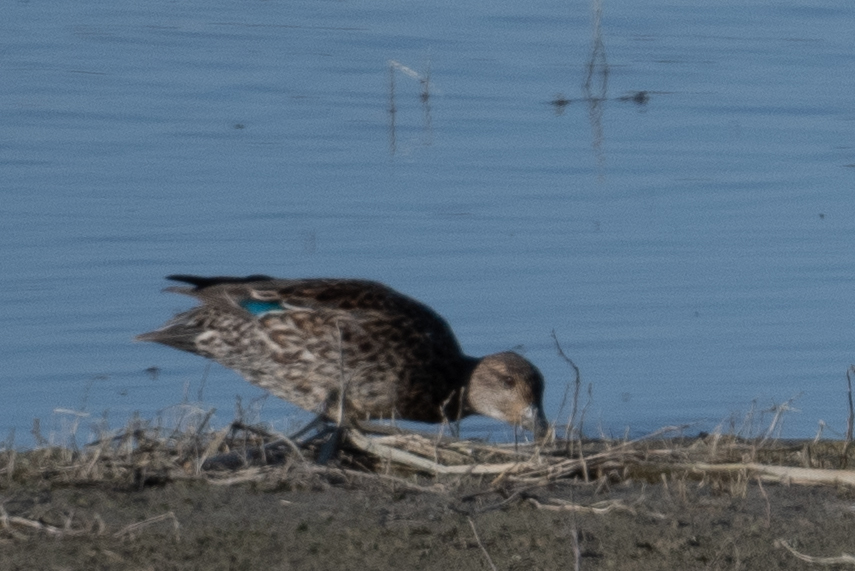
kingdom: Animalia
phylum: Chordata
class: Aves
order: Anseriformes
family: Anatidae
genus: Anas
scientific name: Anas crecca
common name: Eurasian teal
